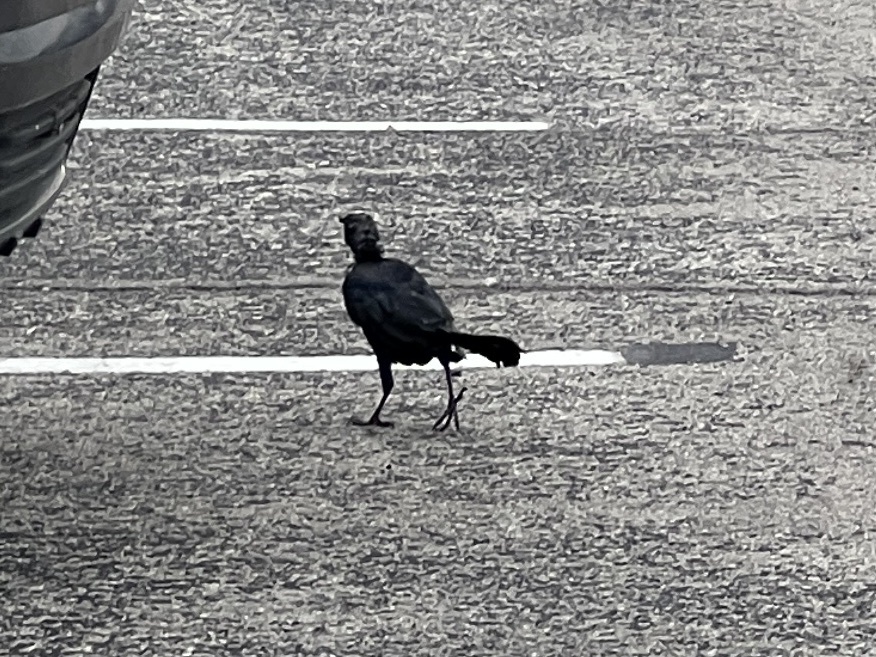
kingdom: Animalia
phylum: Chordata
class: Aves
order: Passeriformes
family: Icteridae
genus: Quiscalus
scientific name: Quiscalus mexicanus
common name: Great-tailed grackle
